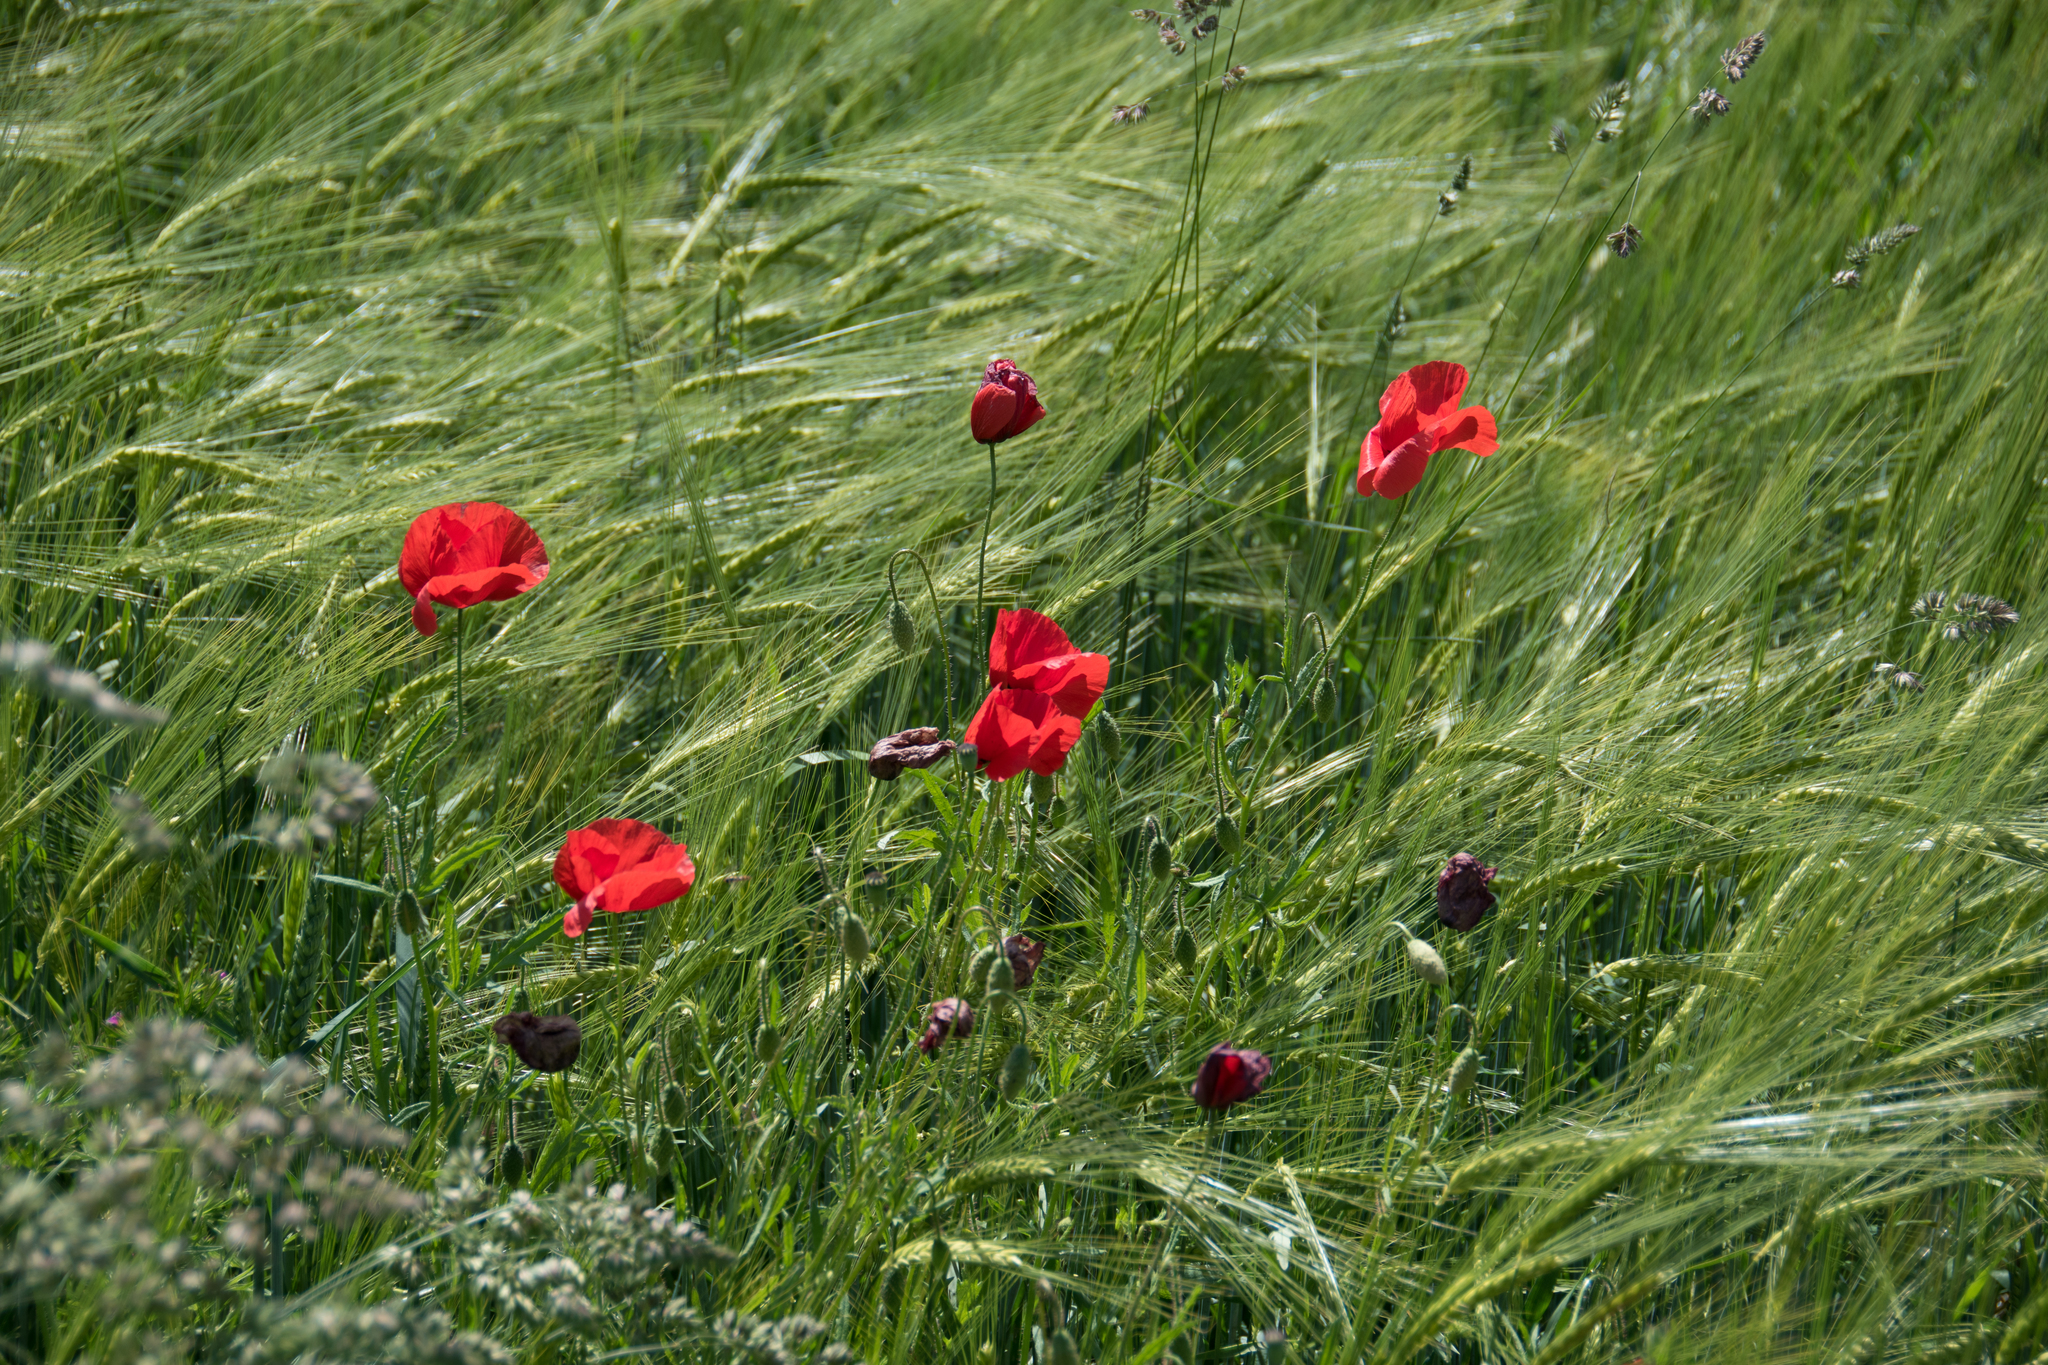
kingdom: Plantae
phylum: Tracheophyta
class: Magnoliopsida
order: Ranunculales
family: Papaveraceae
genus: Papaver
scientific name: Papaver rhoeas
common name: Corn poppy
